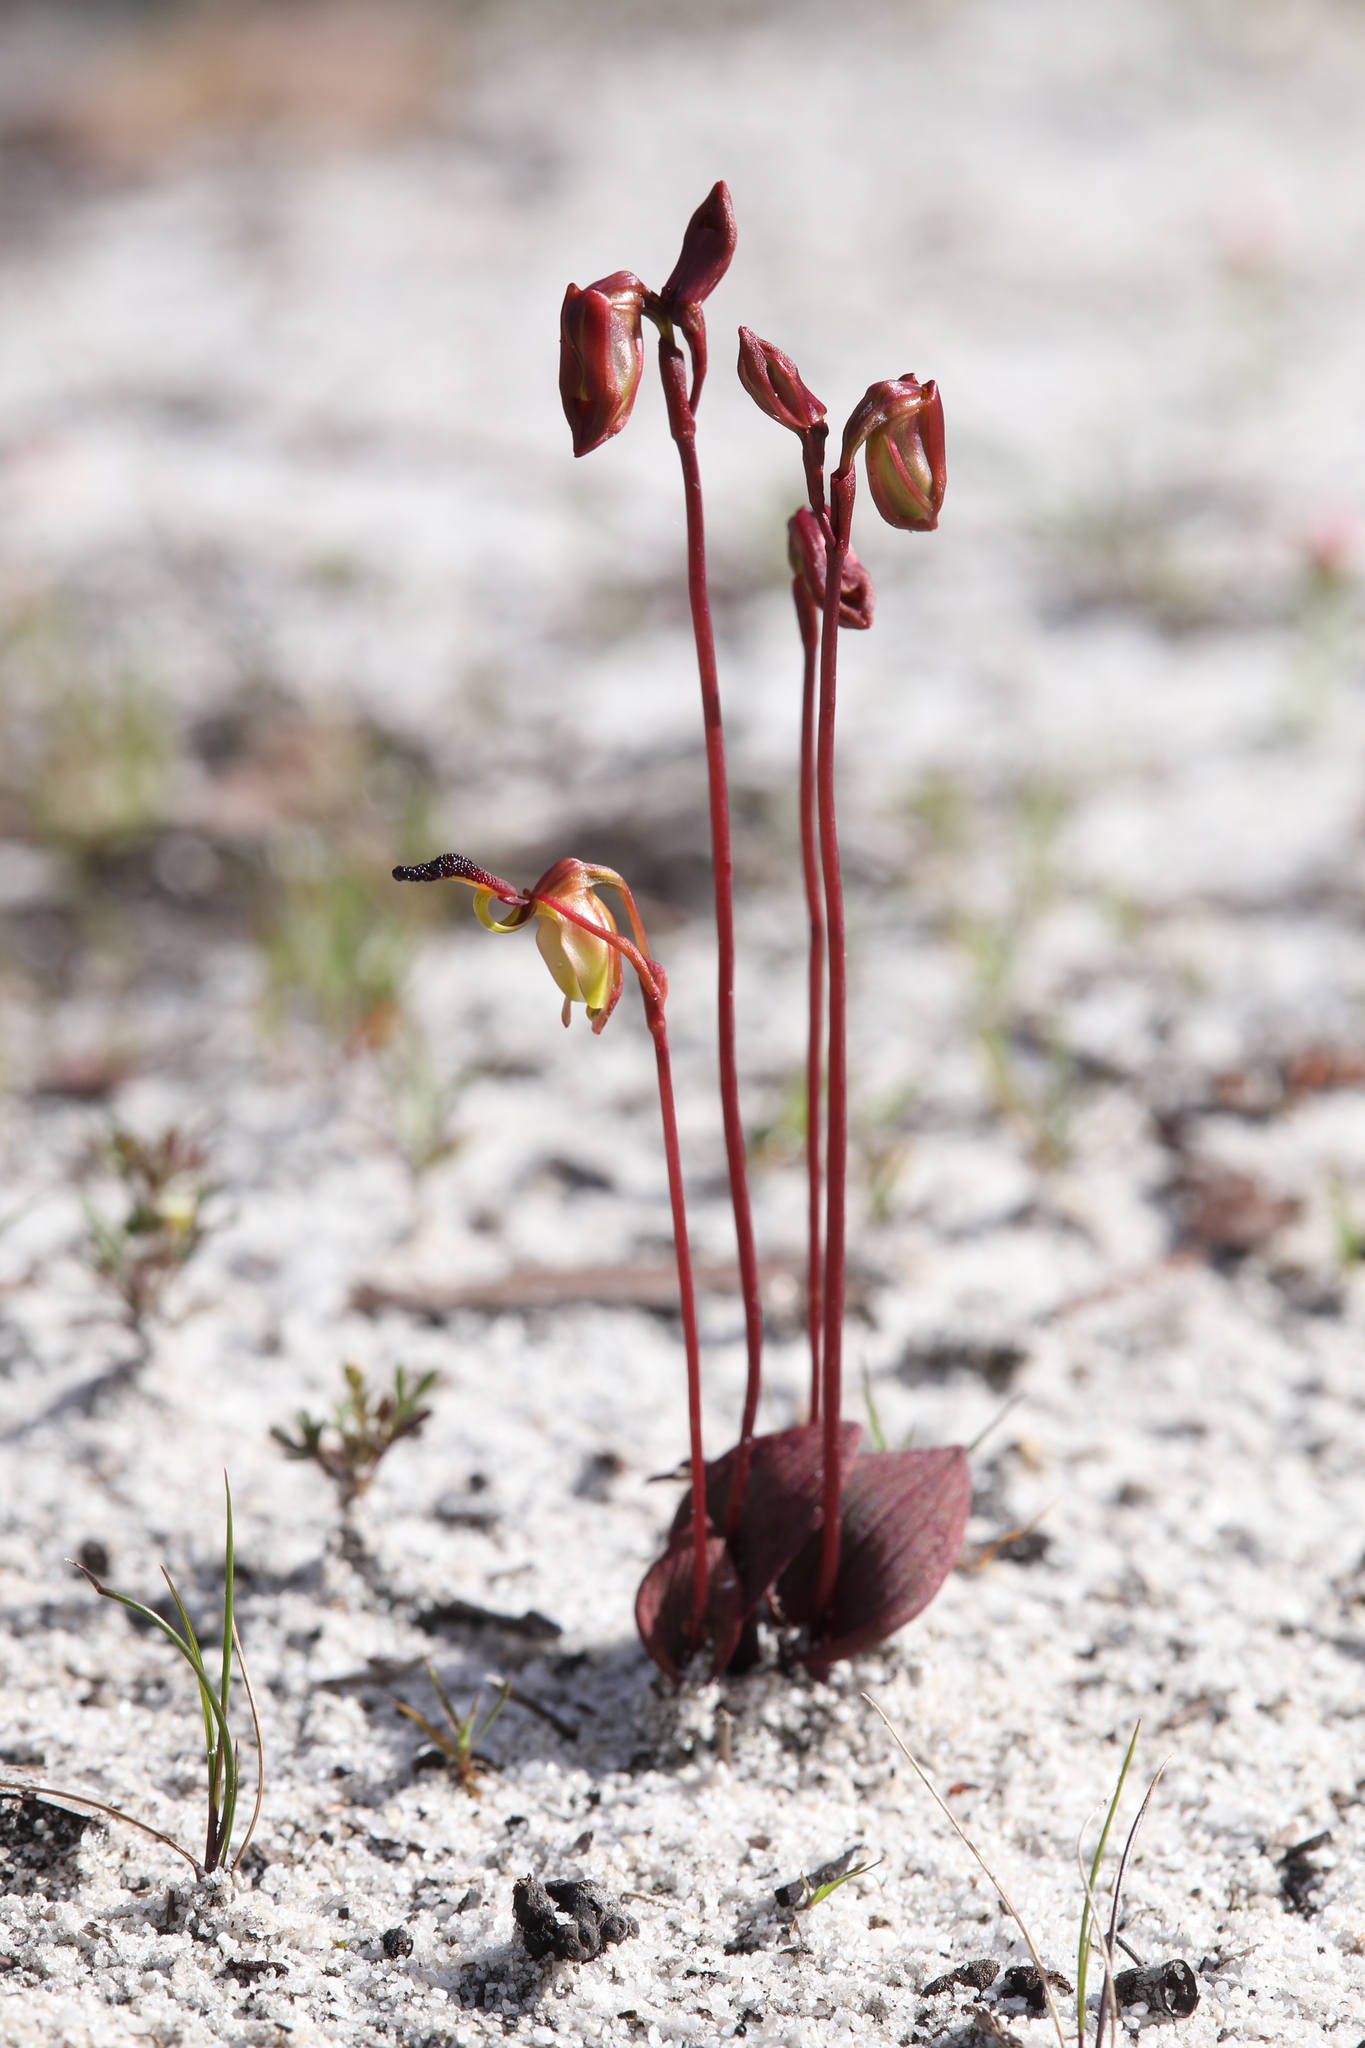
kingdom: Plantae
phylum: Tracheophyta
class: Liliopsida
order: Asparagales
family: Orchidaceae
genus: Caleana
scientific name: Caleana nigrita
